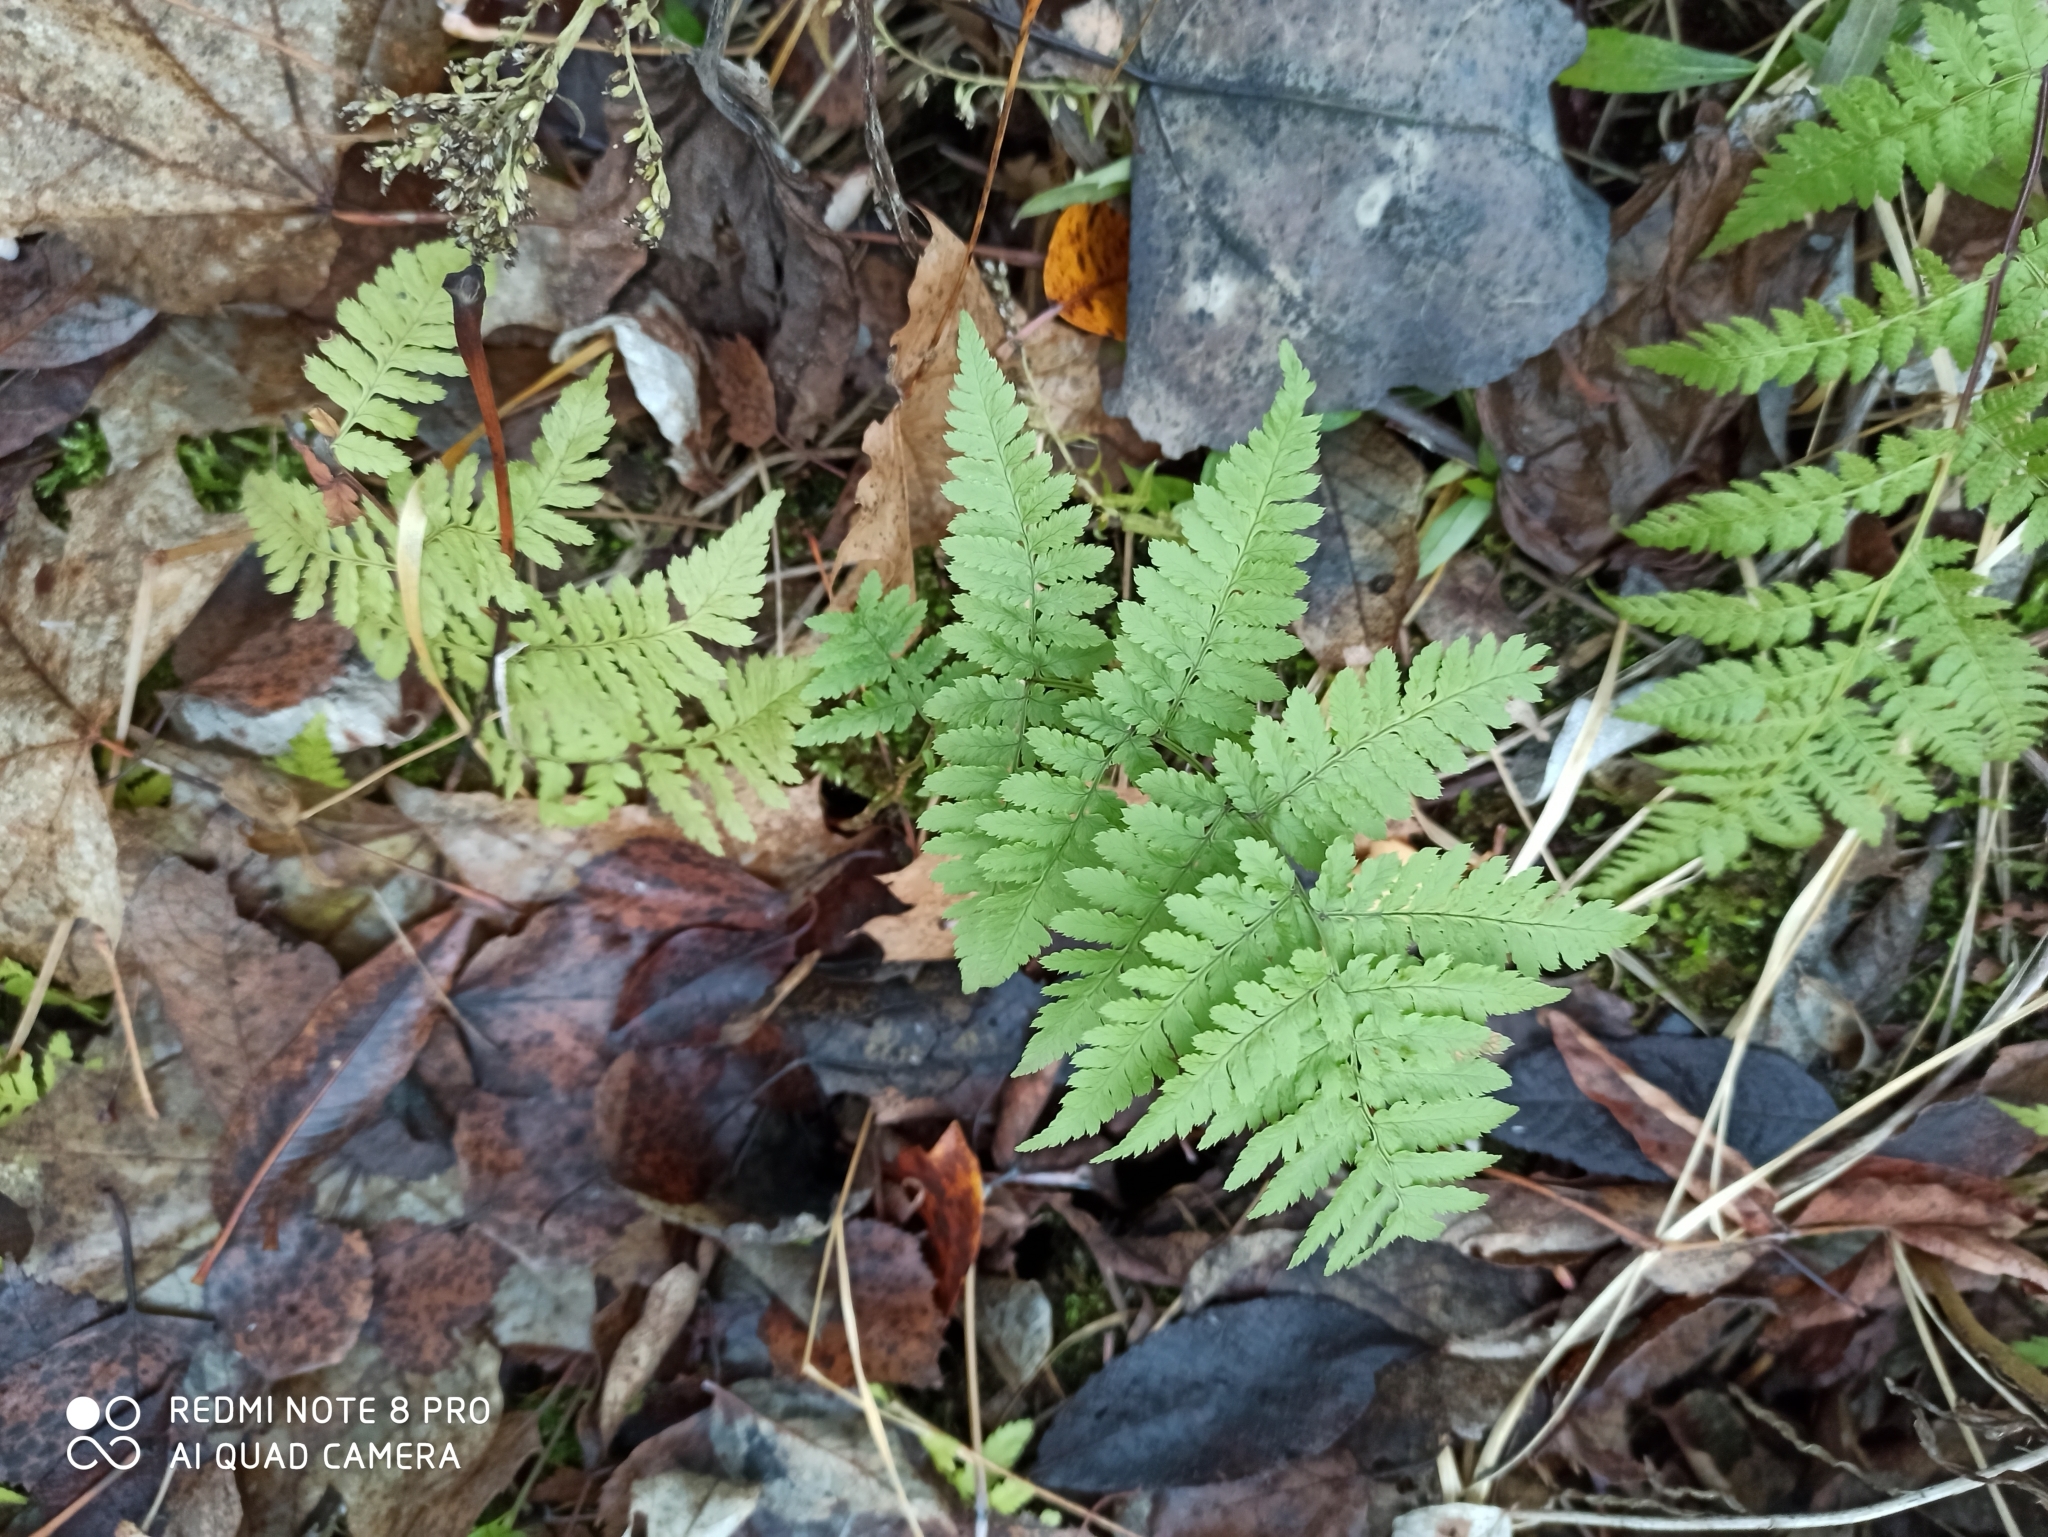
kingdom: Plantae
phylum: Tracheophyta
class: Polypodiopsida
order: Polypodiales
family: Dryopteridaceae
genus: Dryopteris
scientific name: Dryopteris carthusiana
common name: Narrow buckler-fern
